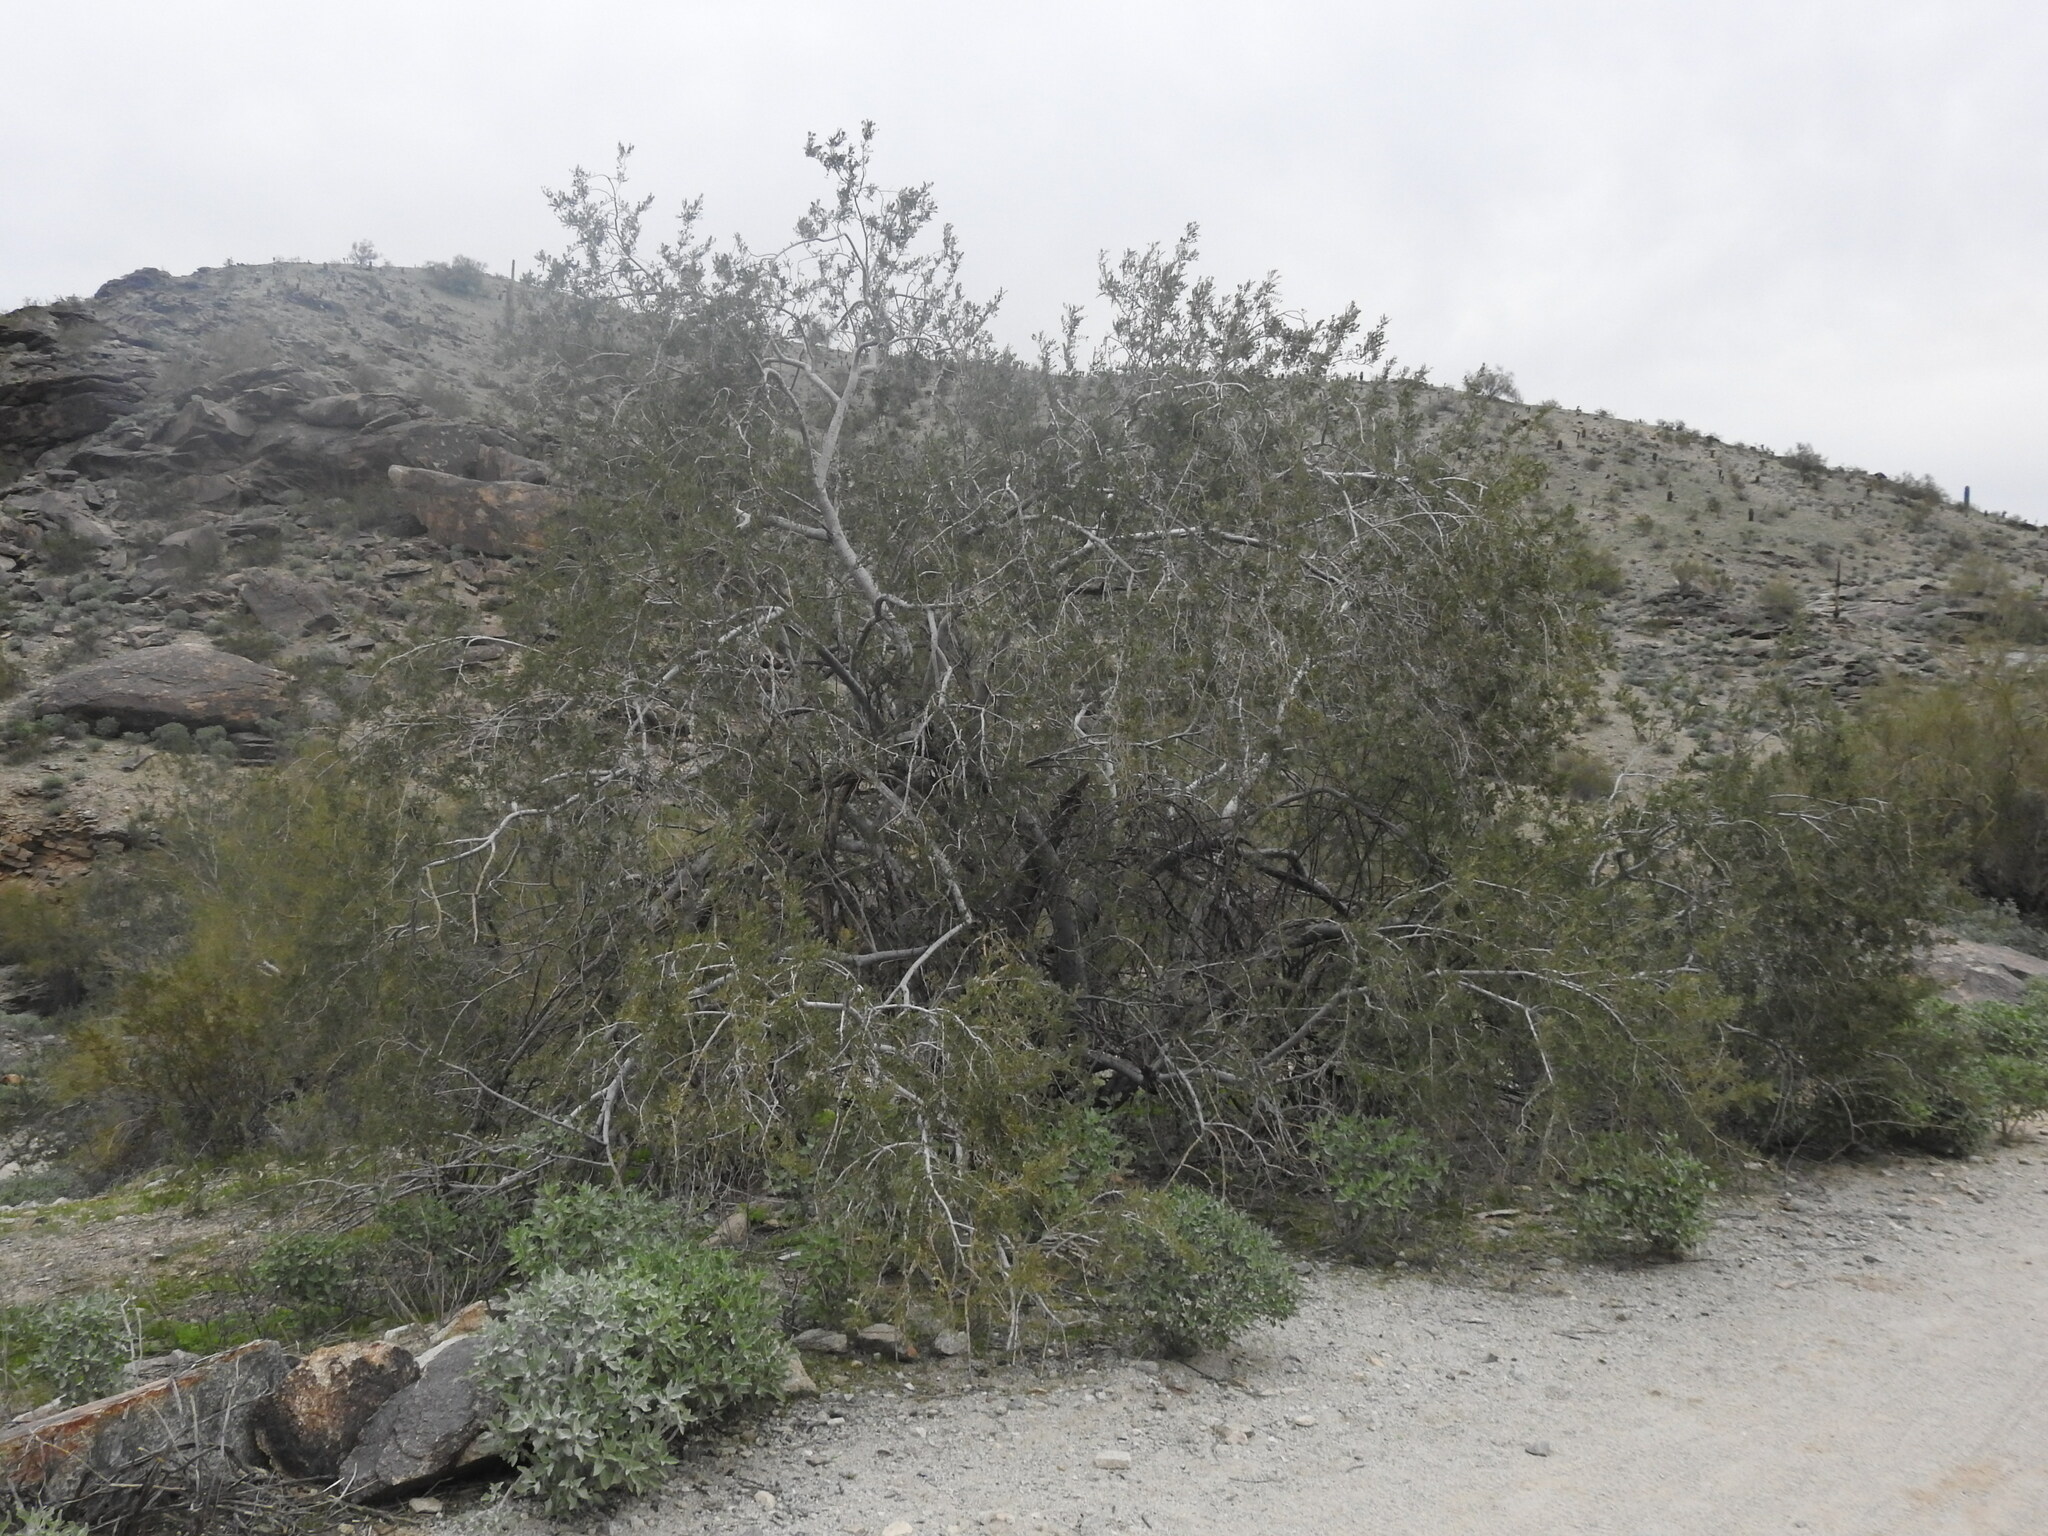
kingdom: Plantae
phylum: Tracheophyta
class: Magnoliopsida
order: Fabales
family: Fabaceae
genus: Olneya
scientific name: Olneya tesota
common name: Desert ironwood
